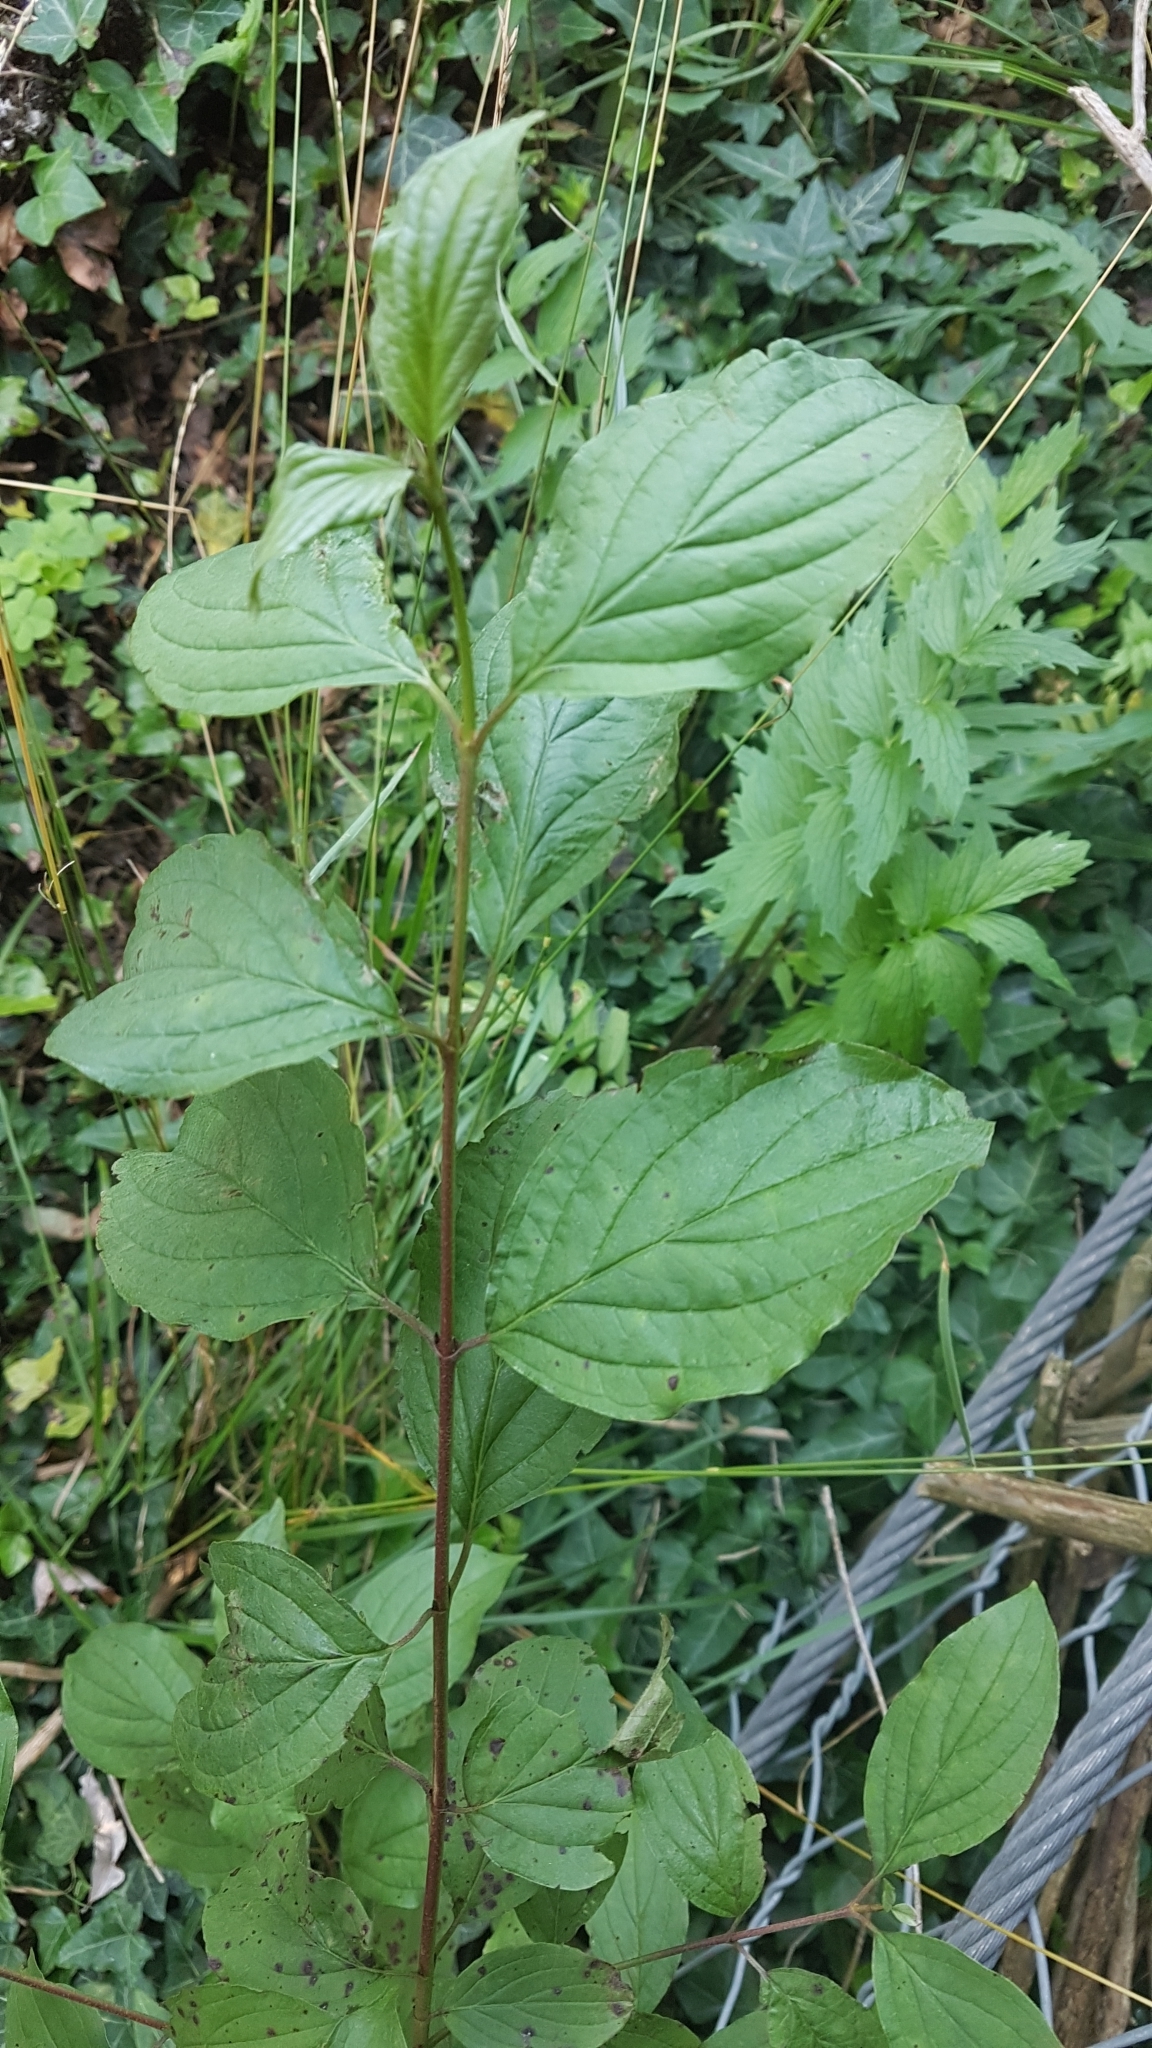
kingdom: Plantae
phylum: Tracheophyta
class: Magnoliopsida
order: Cornales
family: Cornaceae
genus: Cornus
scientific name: Cornus sanguinea
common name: Dogwood
